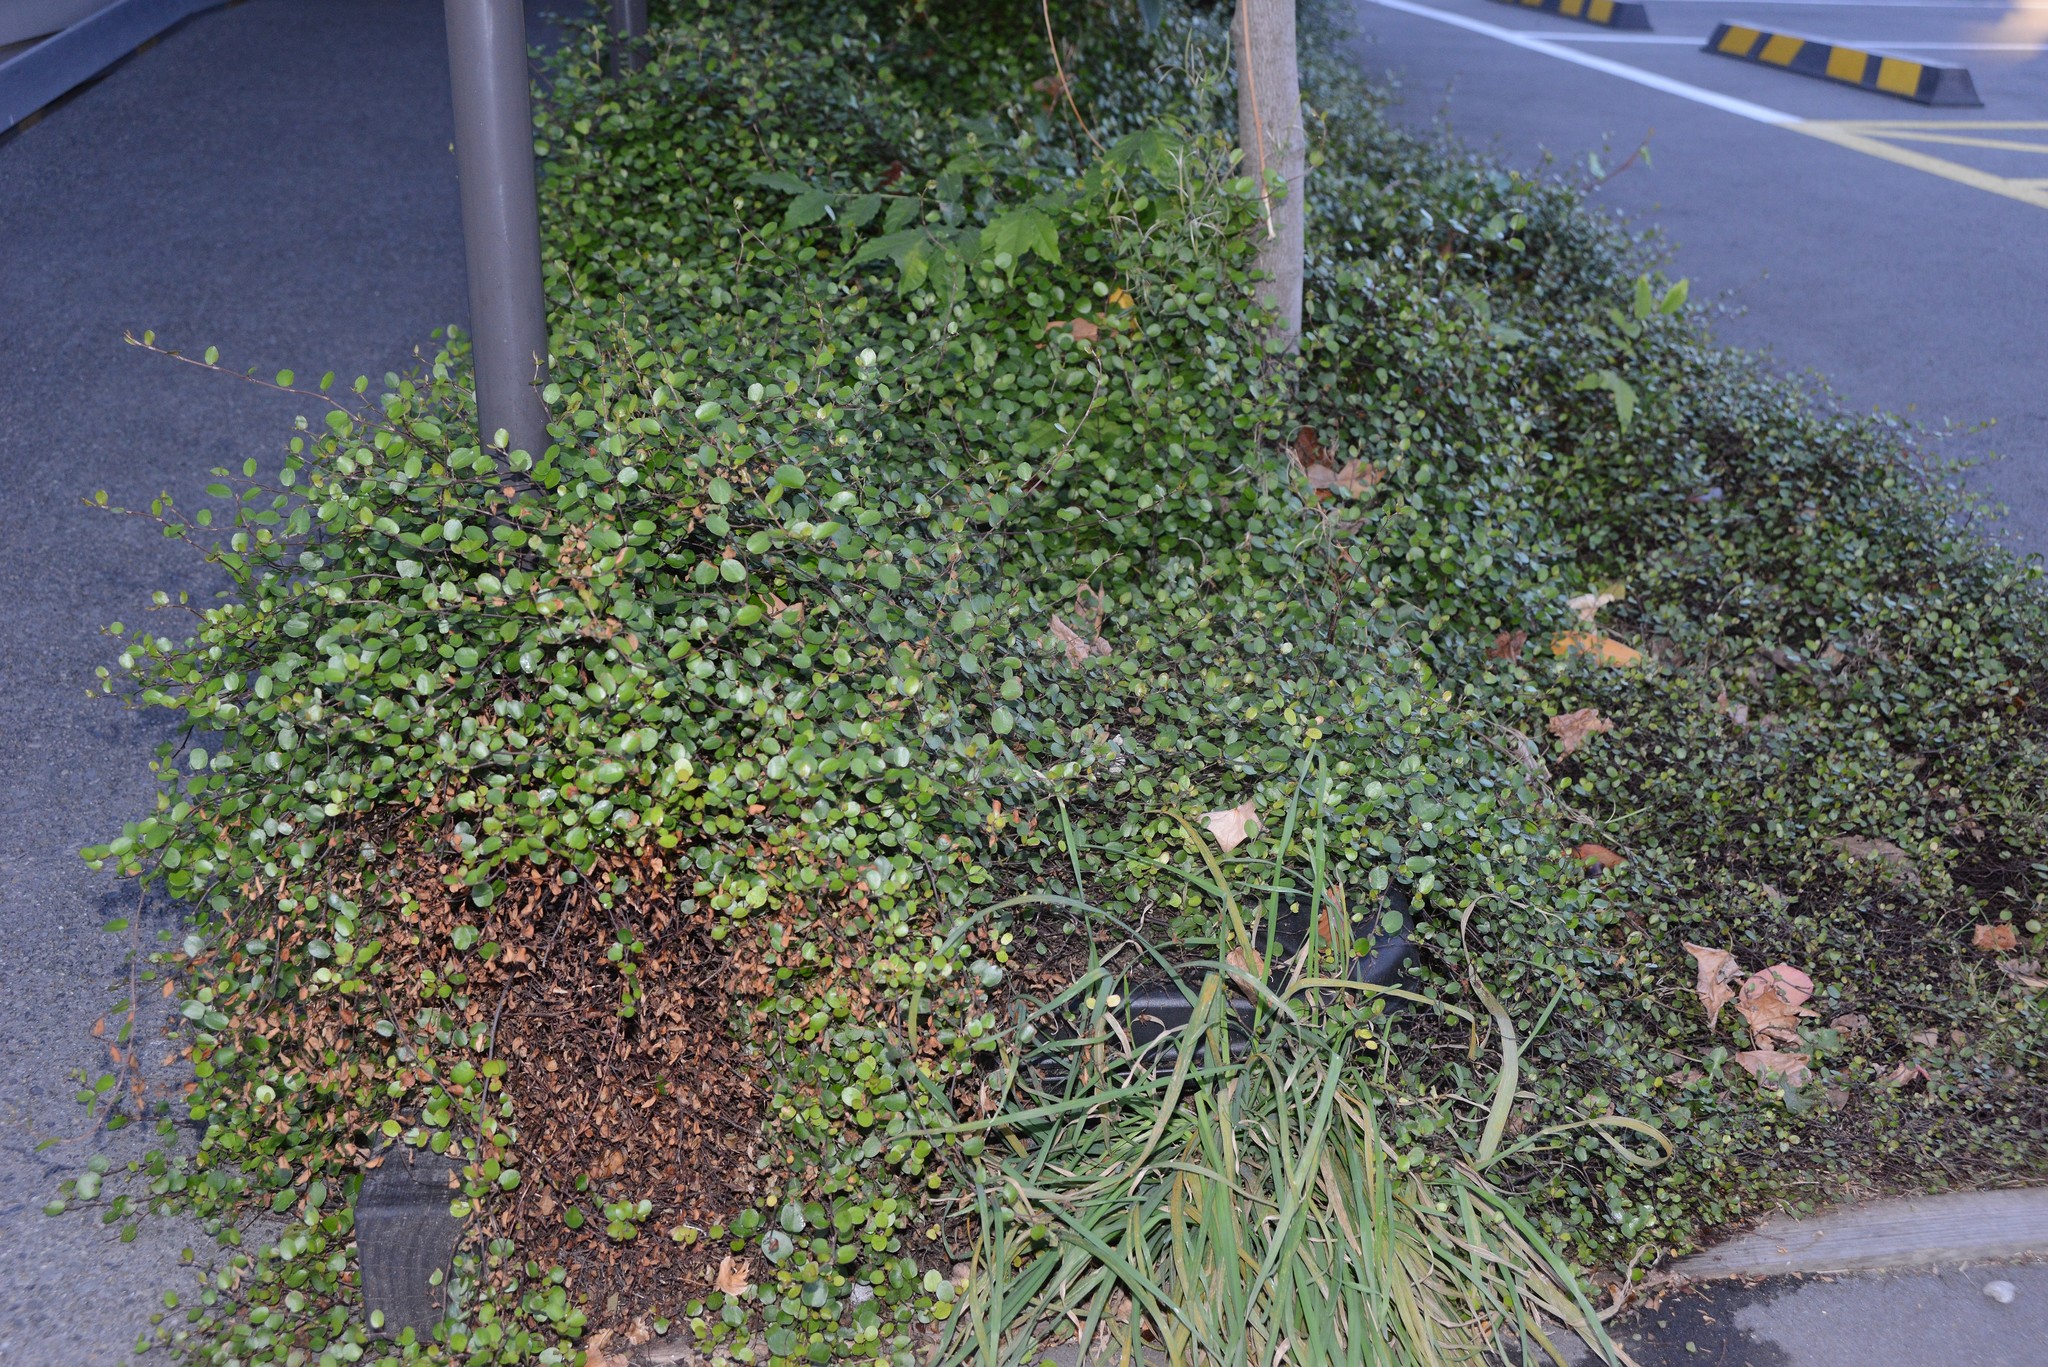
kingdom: Plantae
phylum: Tracheophyta
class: Magnoliopsida
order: Caryophyllales
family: Polygonaceae
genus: Muehlenbeckia
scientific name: Muehlenbeckia complexa
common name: Wireplant
